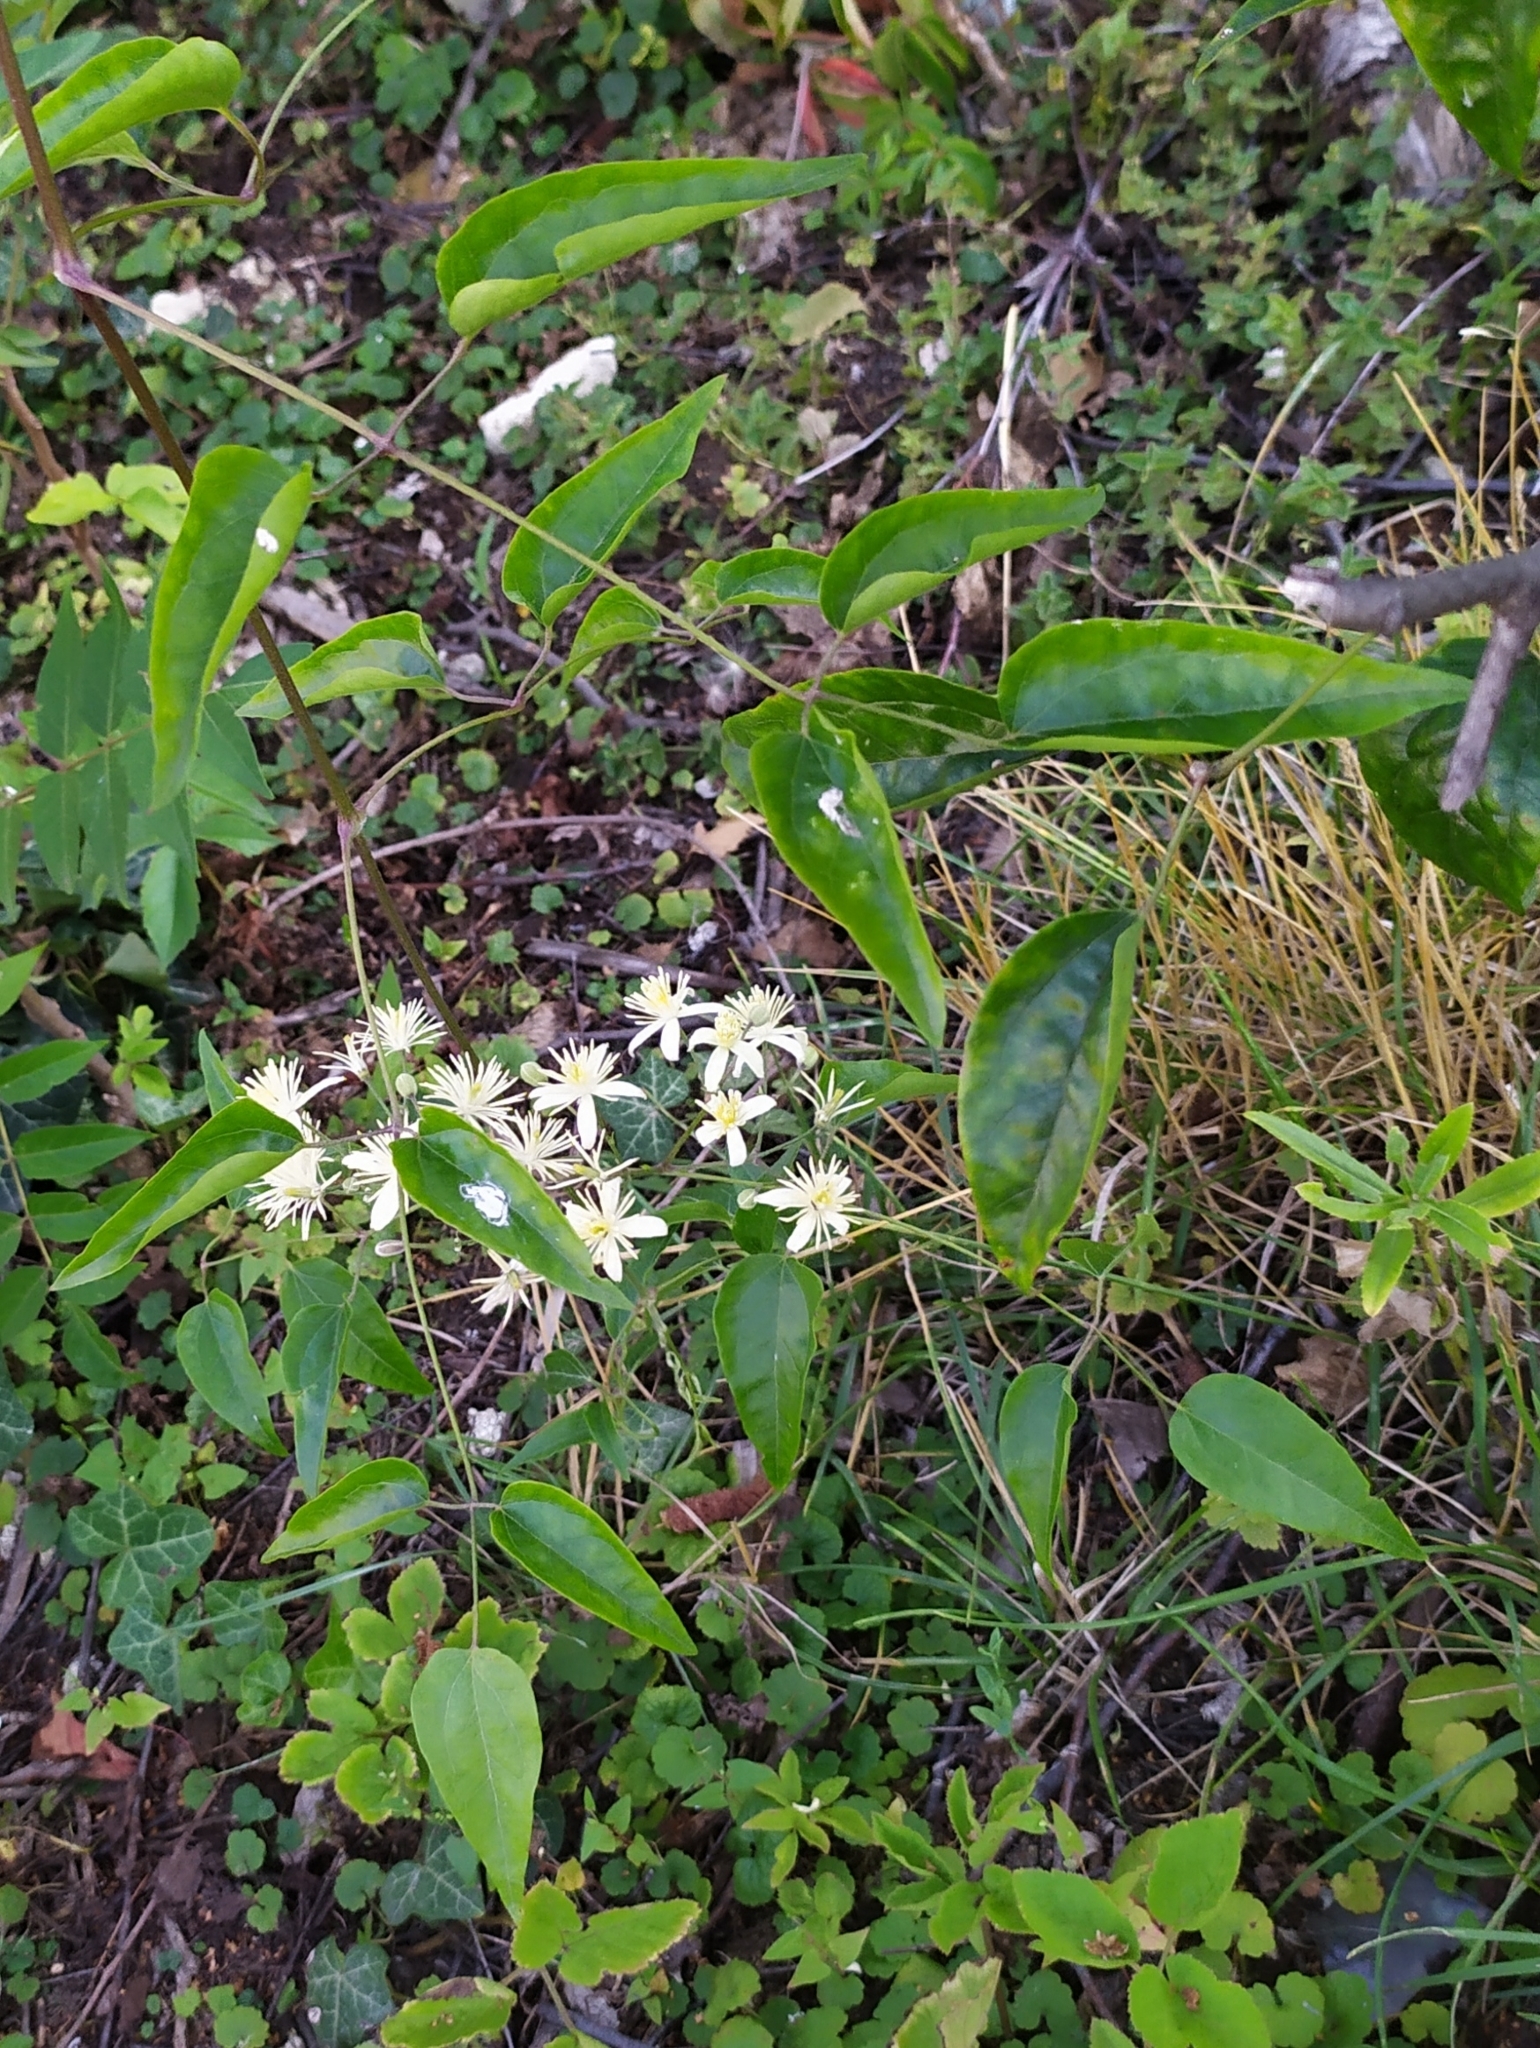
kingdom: Plantae
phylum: Tracheophyta
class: Magnoliopsida
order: Ranunculales
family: Ranunculaceae
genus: Clematis
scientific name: Clematis vitalba
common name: Evergreen clematis
